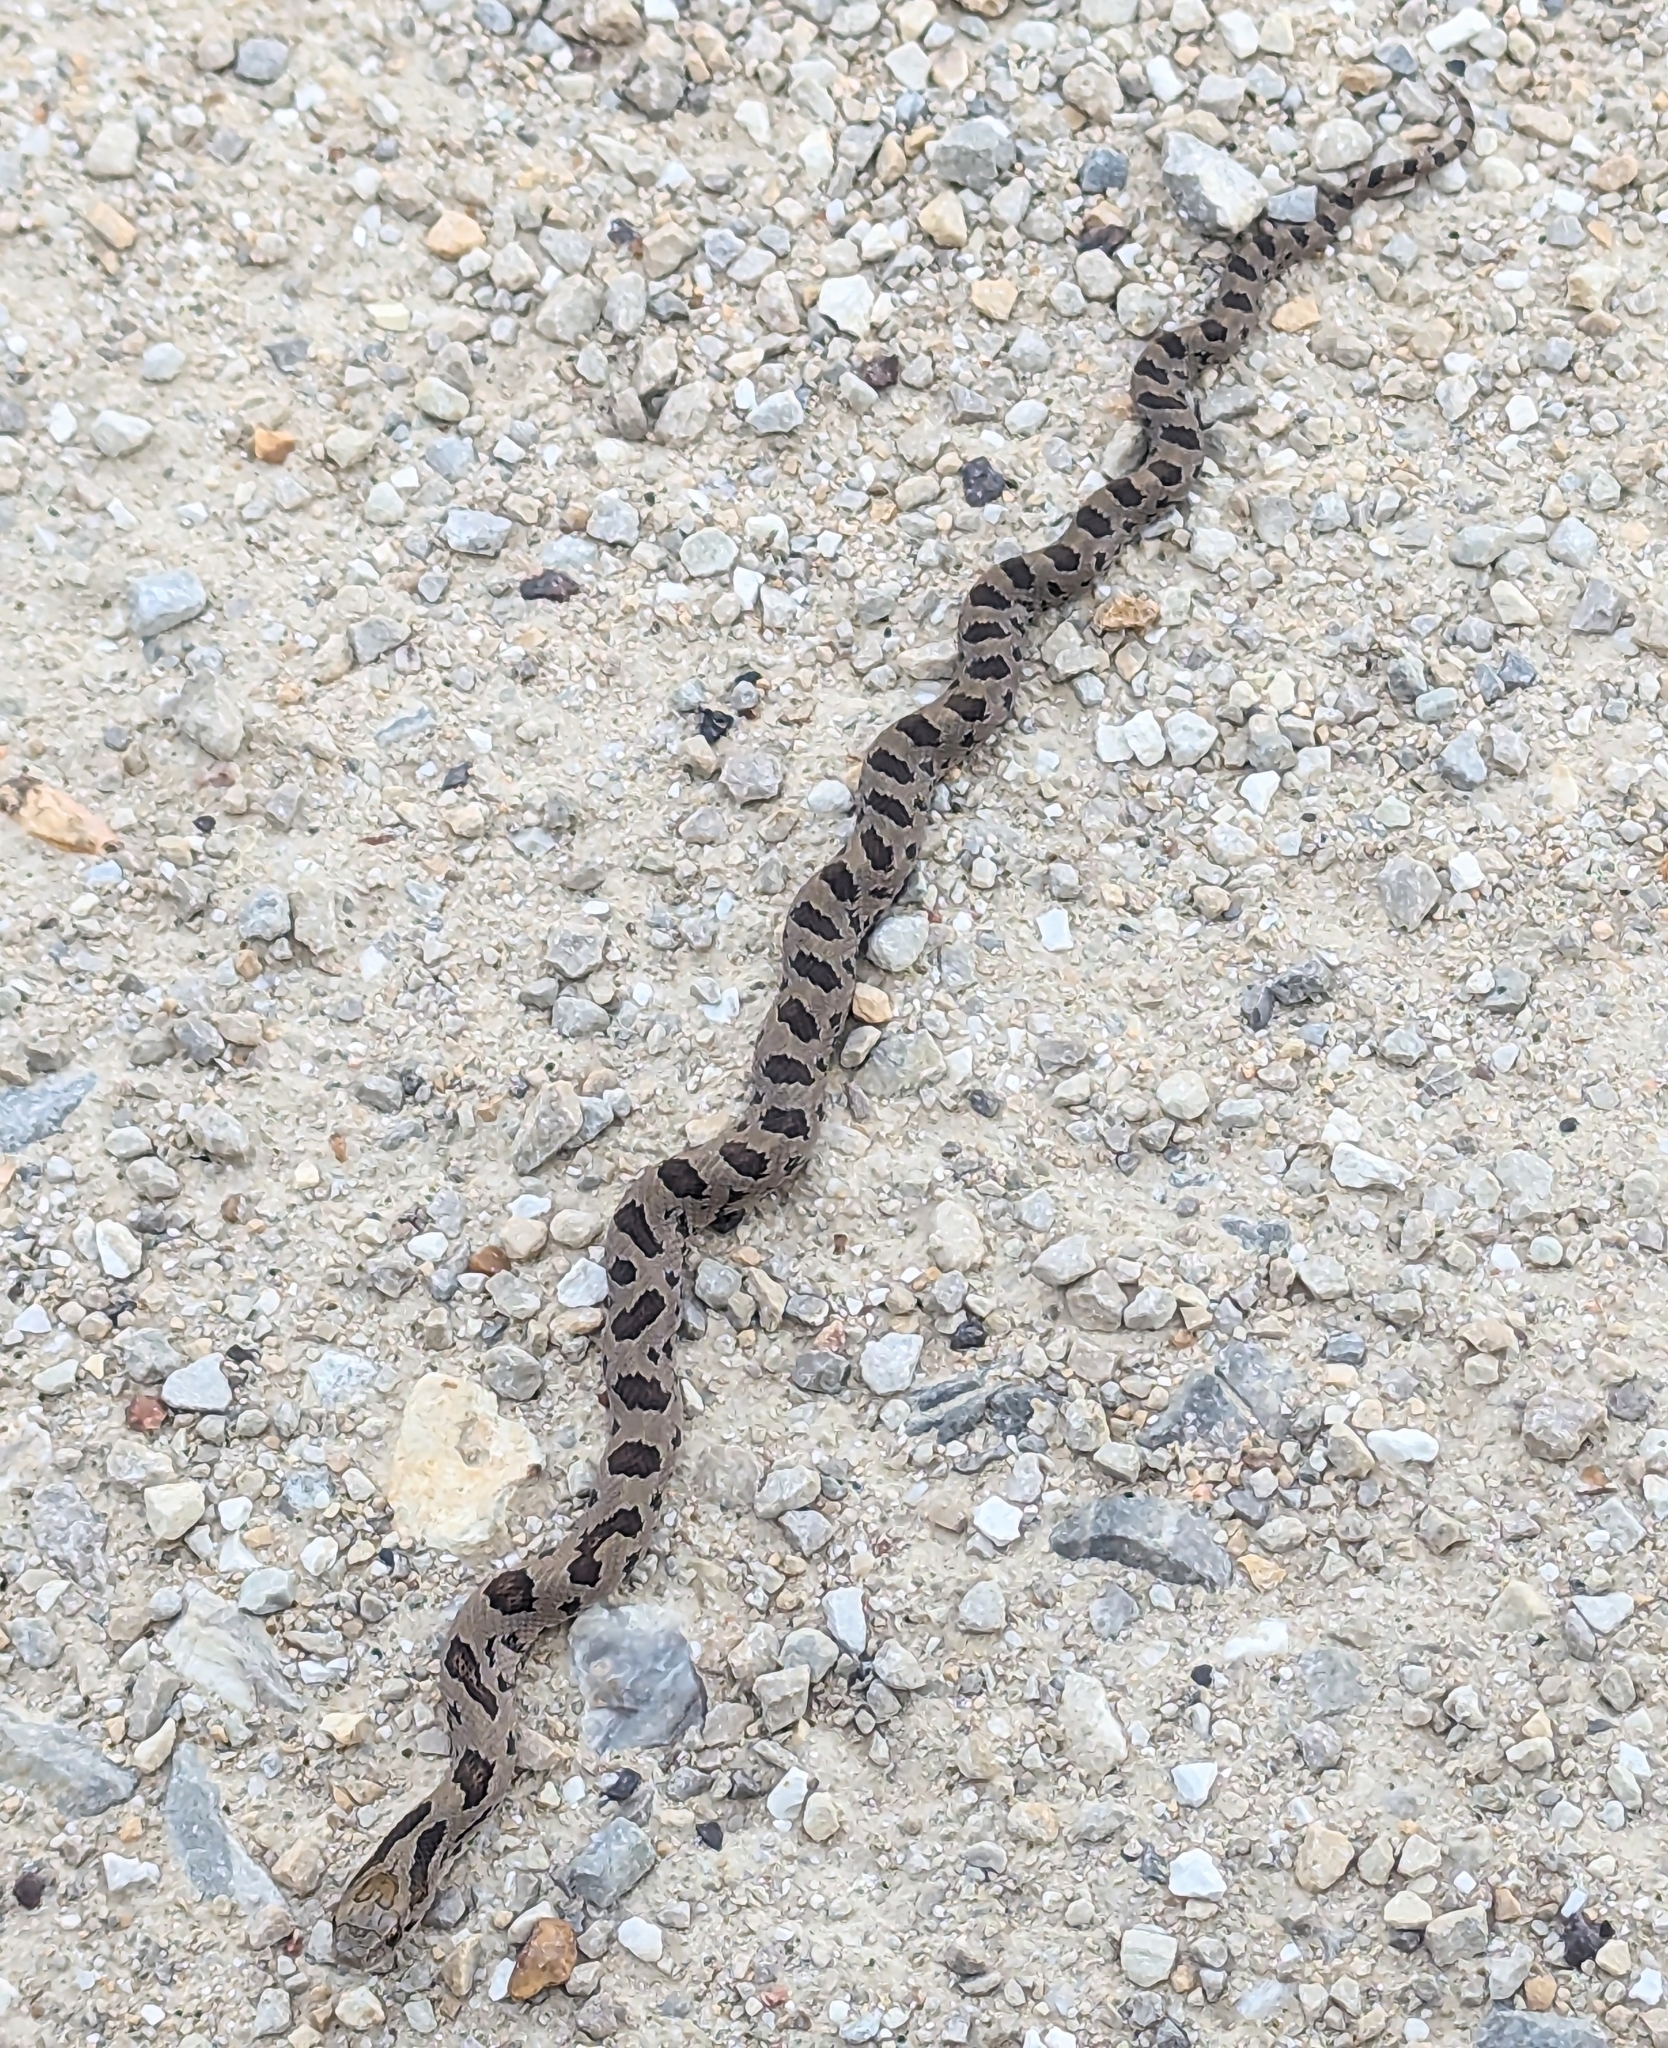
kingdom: Animalia
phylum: Chordata
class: Squamata
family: Colubridae
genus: Lampropeltis
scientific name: Lampropeltis calligaster
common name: Prairie kingsnake
